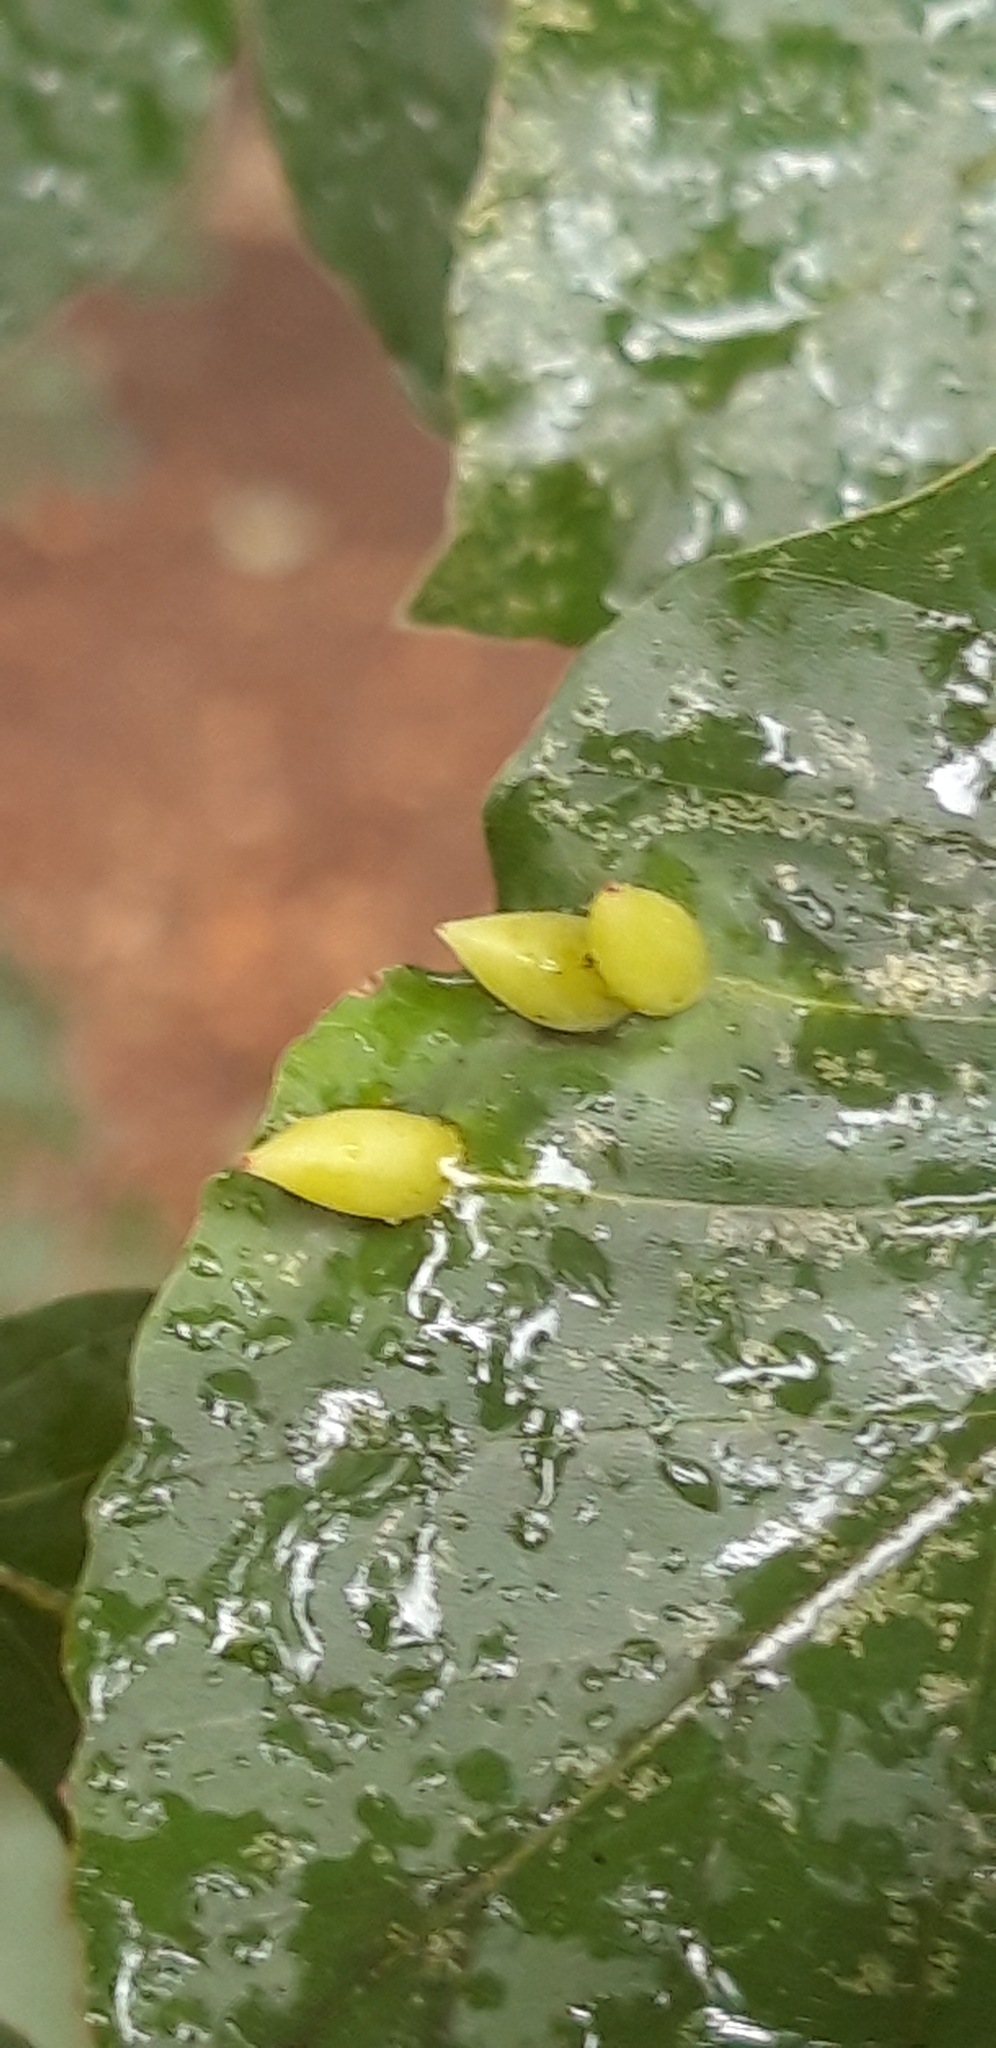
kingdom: Animalia
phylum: Arthropoda
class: Insecta
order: Diptera
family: Cecidomyiidae
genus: Mikiola
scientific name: Mikiola fagi
